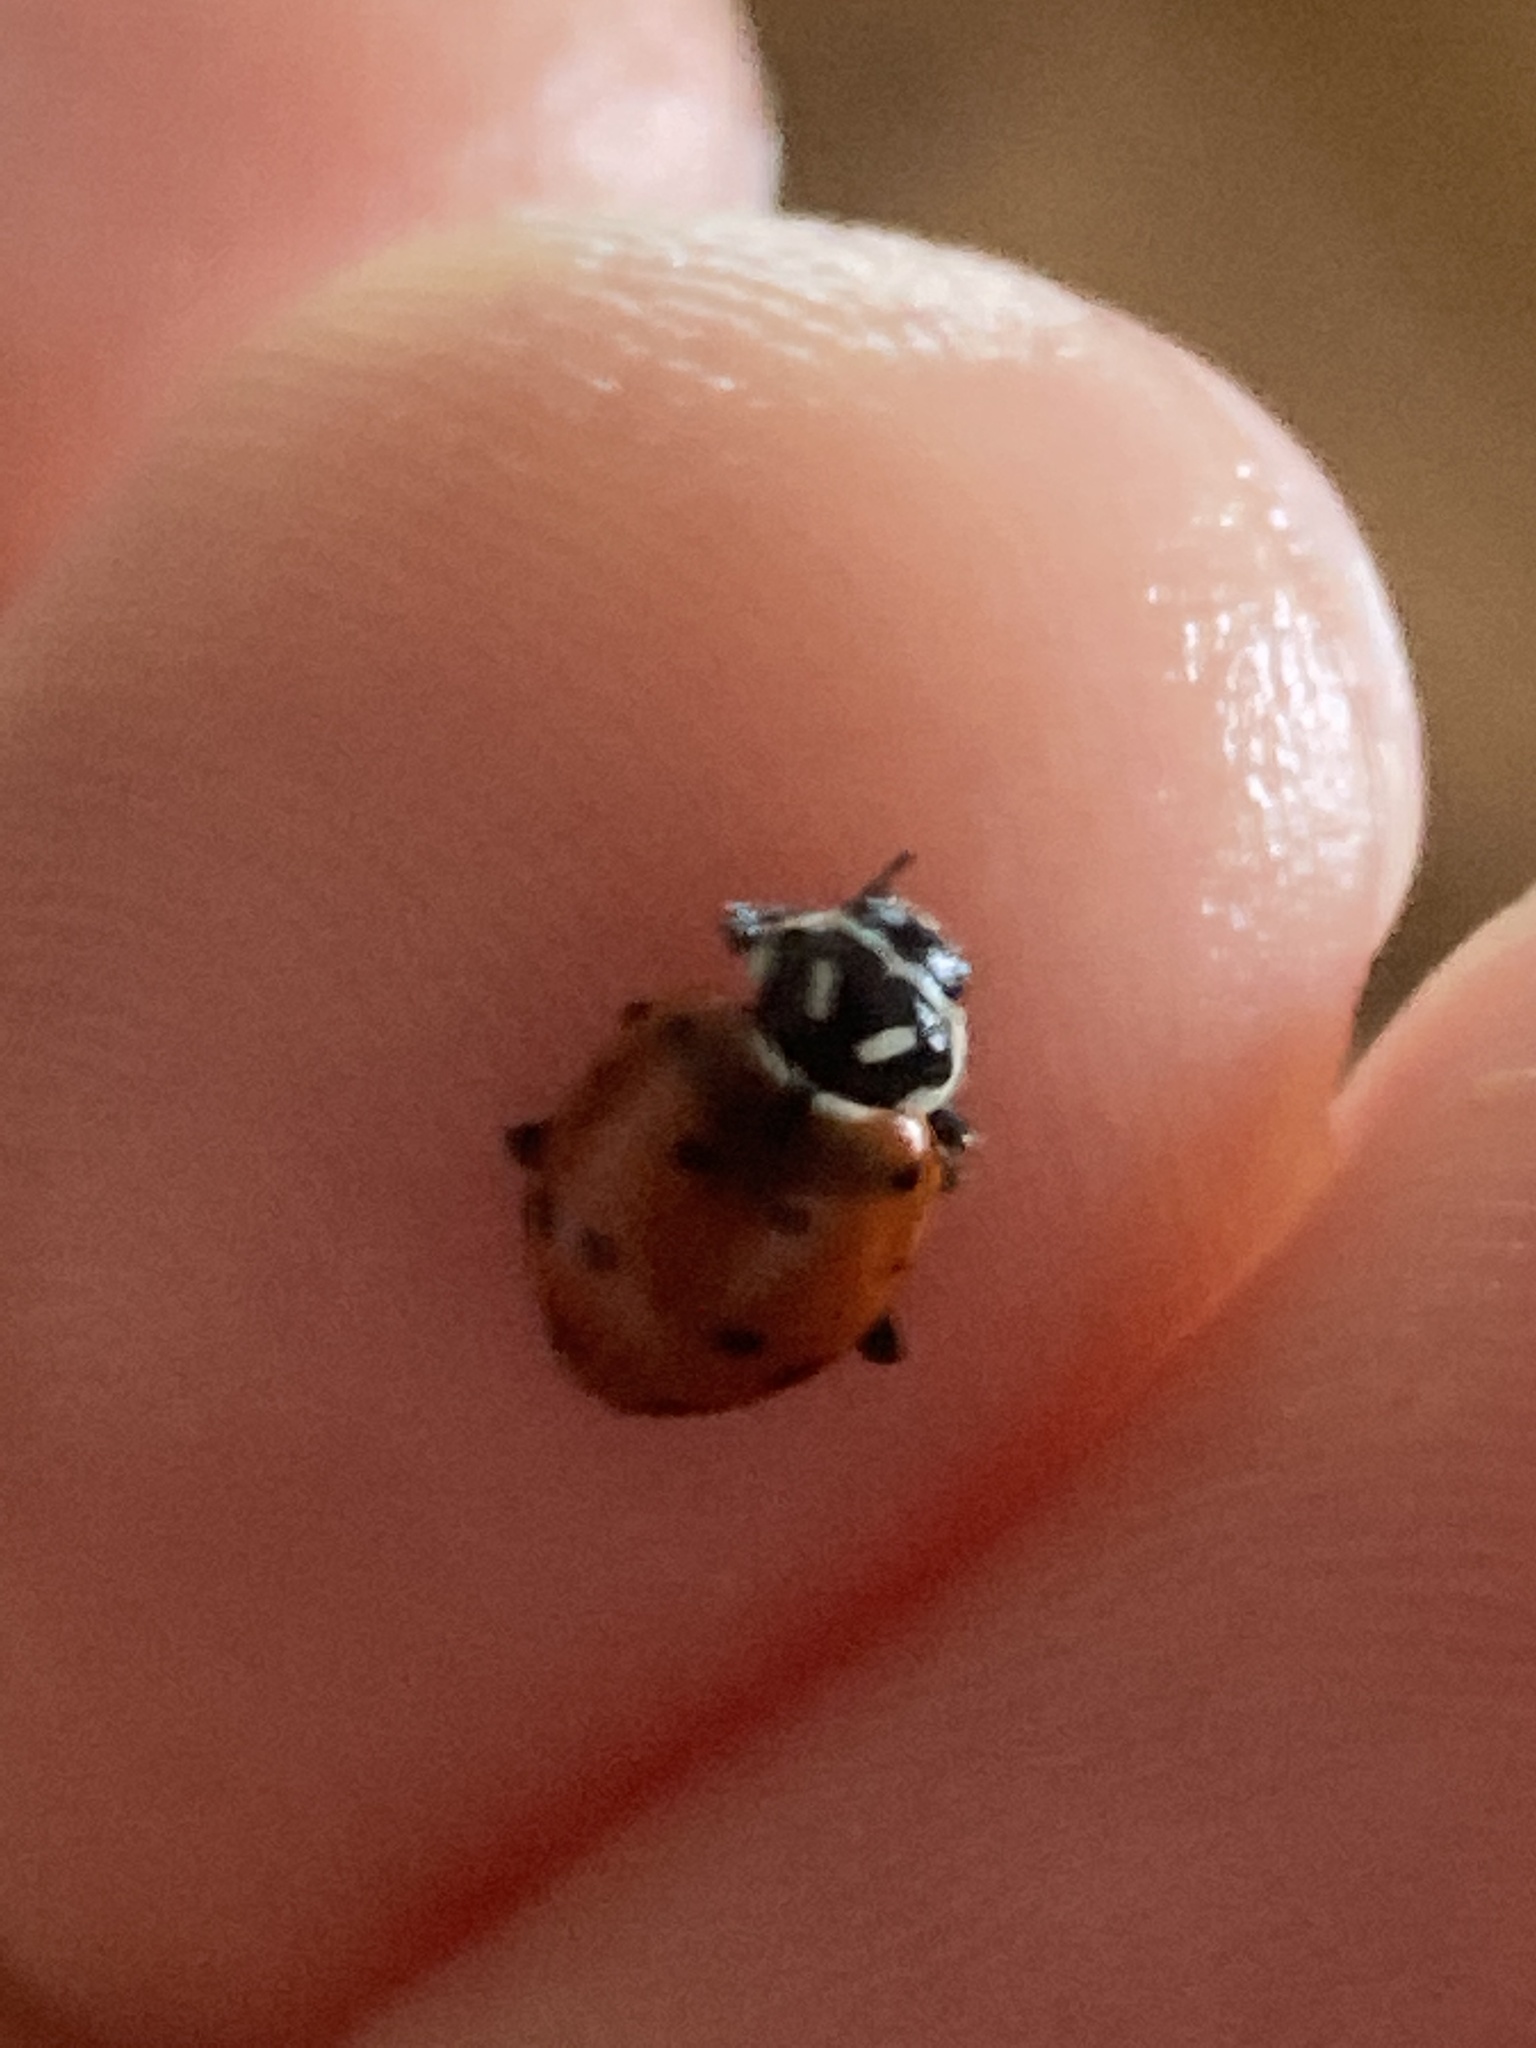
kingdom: Animalia
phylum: Arthropoda
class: Insecta
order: Coleoptera
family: Coccinellidae
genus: Hippodamia
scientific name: Hippodamia convergens
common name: Convergent lady beetle
